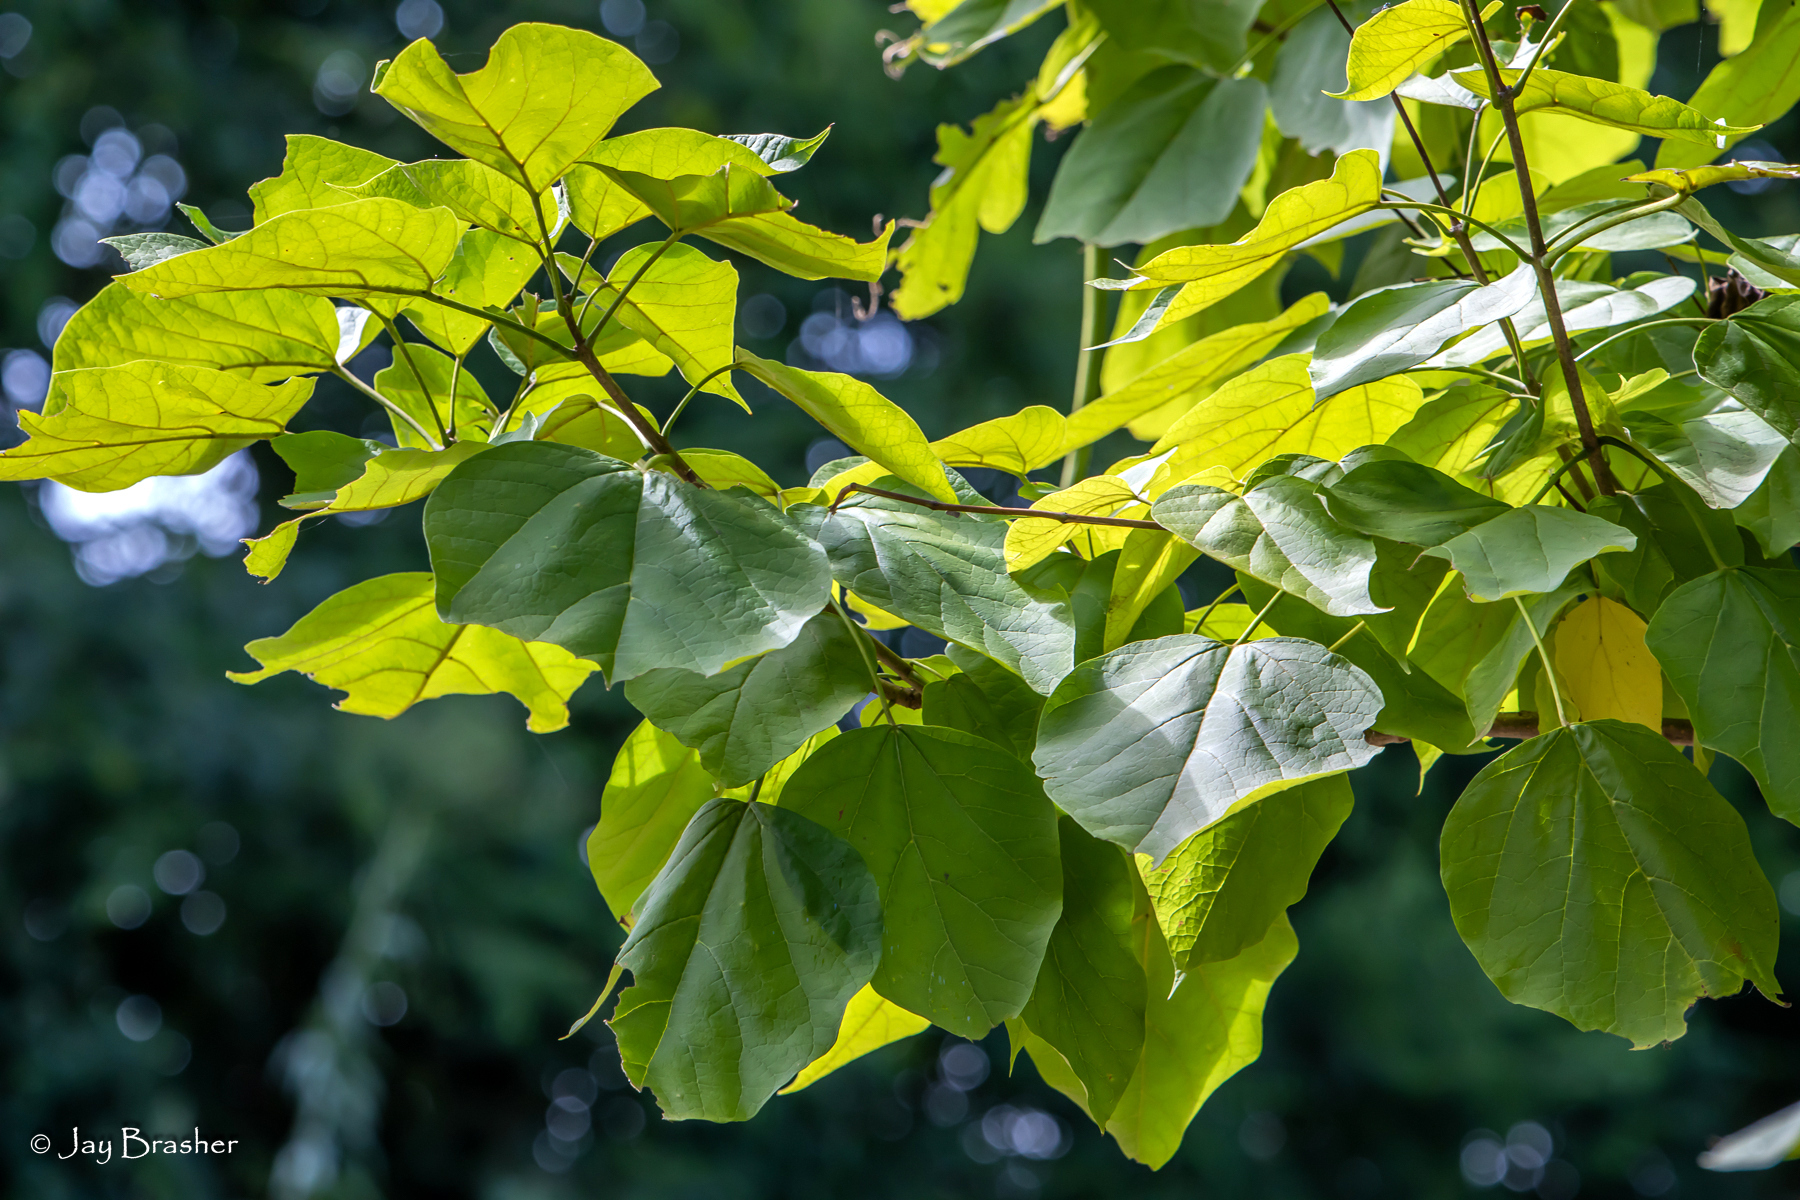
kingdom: Plantae
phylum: Tracheophyta
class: Magnoliopsida
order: Lamiales
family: Bignoniaceae
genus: Catalpa
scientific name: Catalpa bignonioides
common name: Southern catalpa
